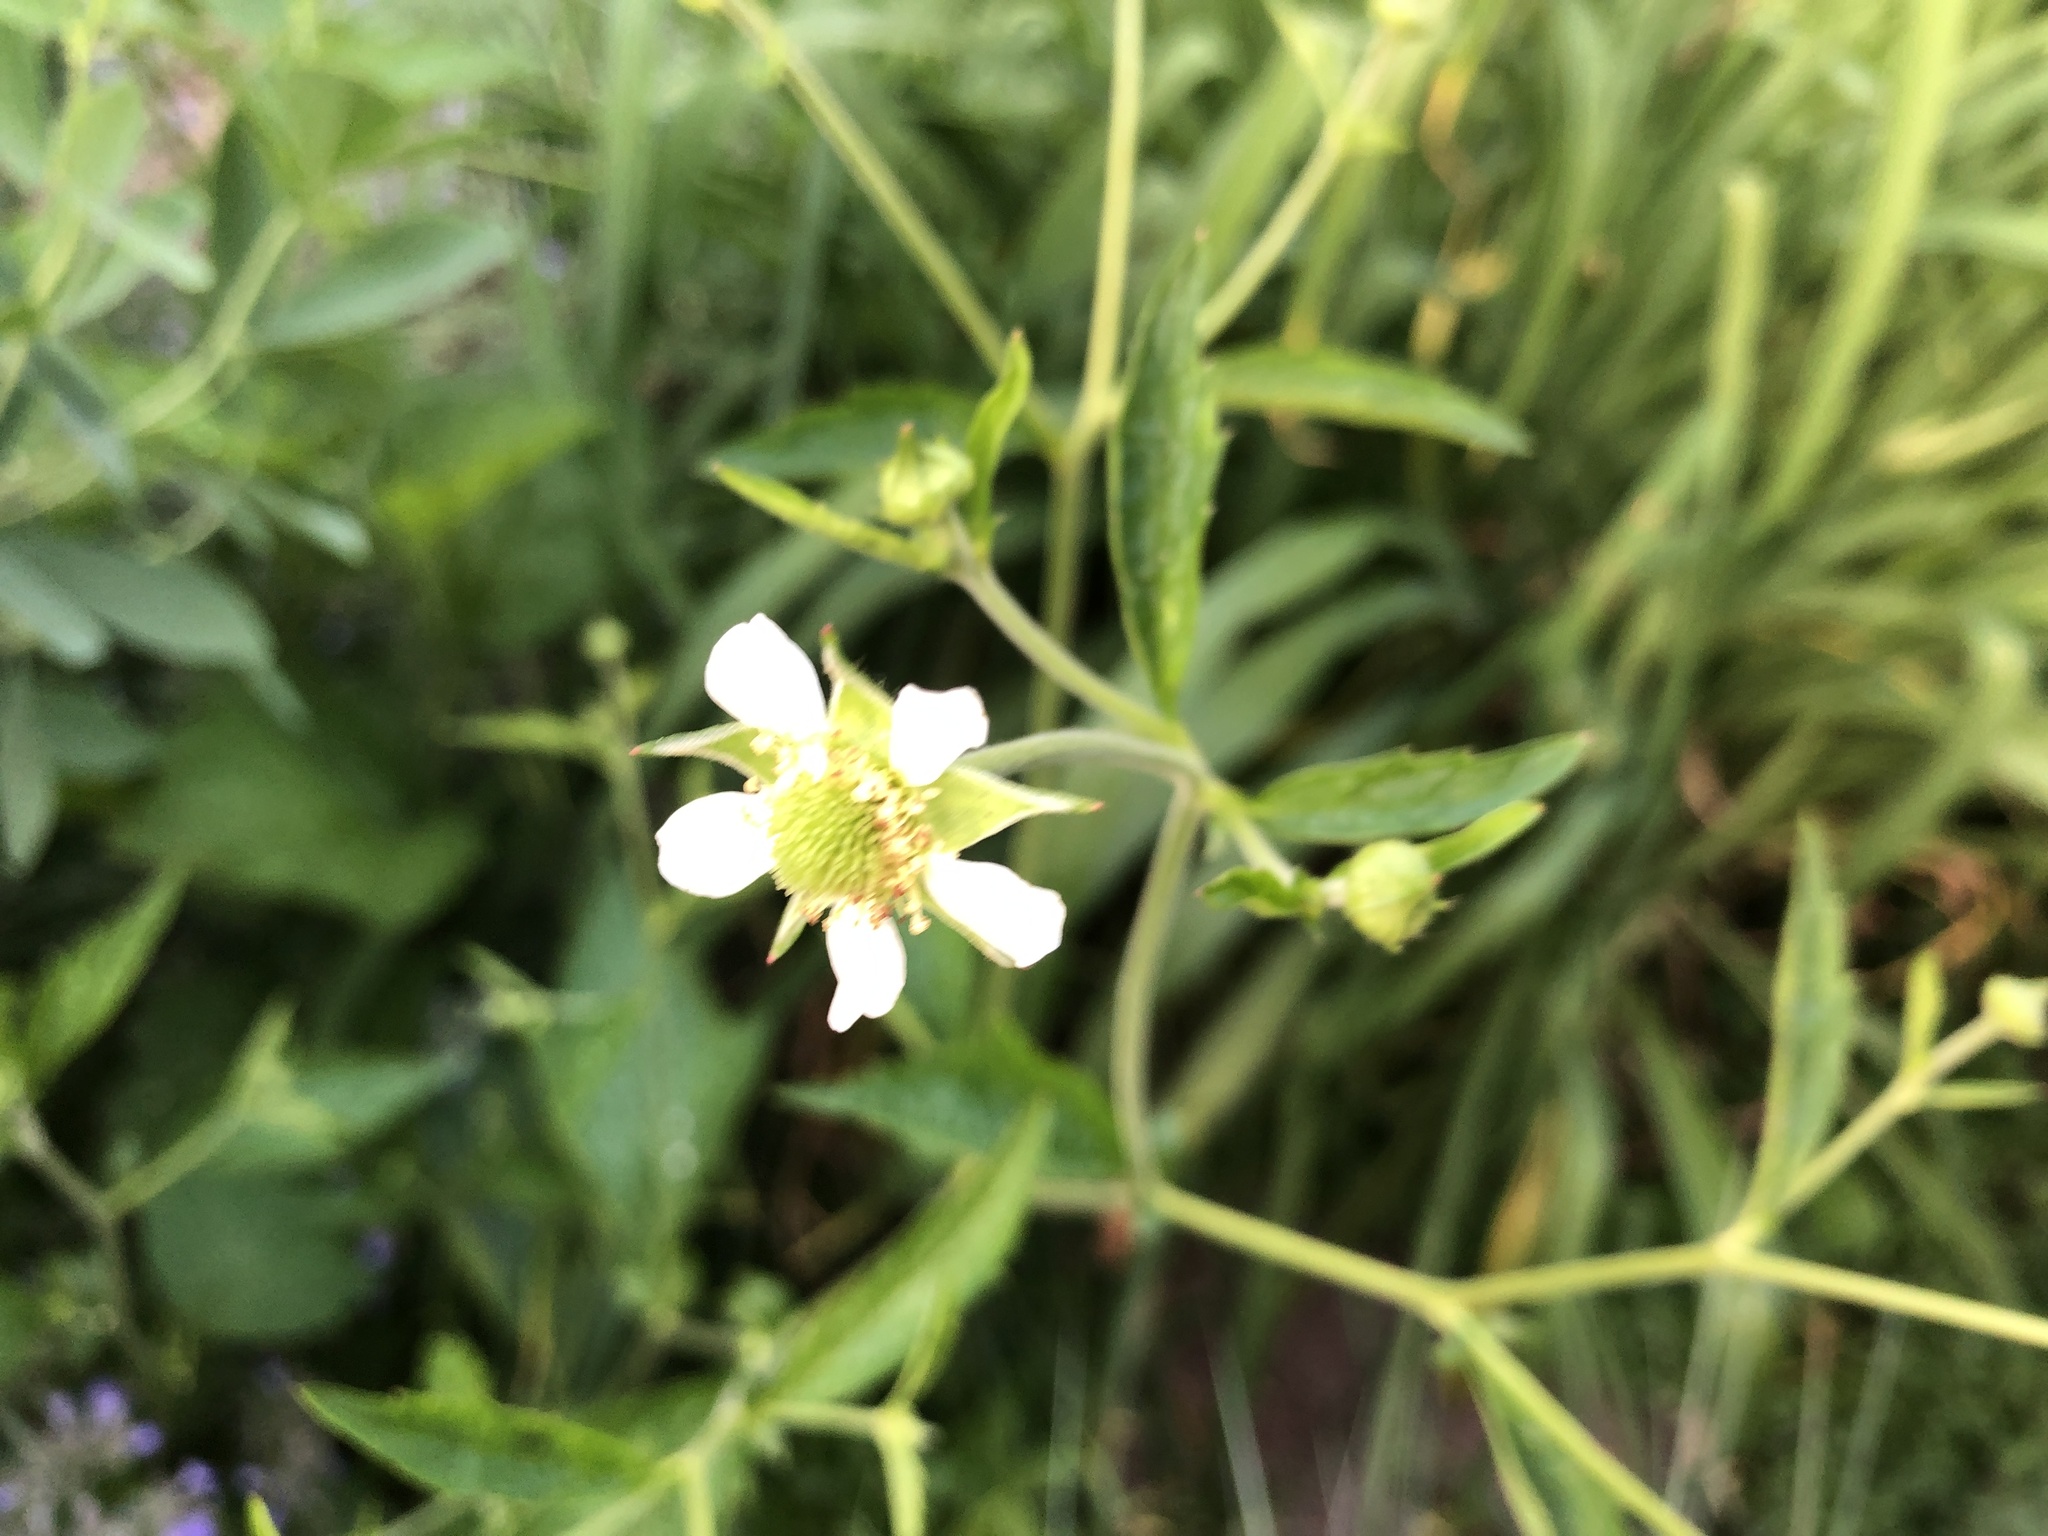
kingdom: Plantae
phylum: Tracheophyta
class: Magnoliopsida
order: Rosales
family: Rosaceae
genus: Geum
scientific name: Geum canadense
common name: White avens
